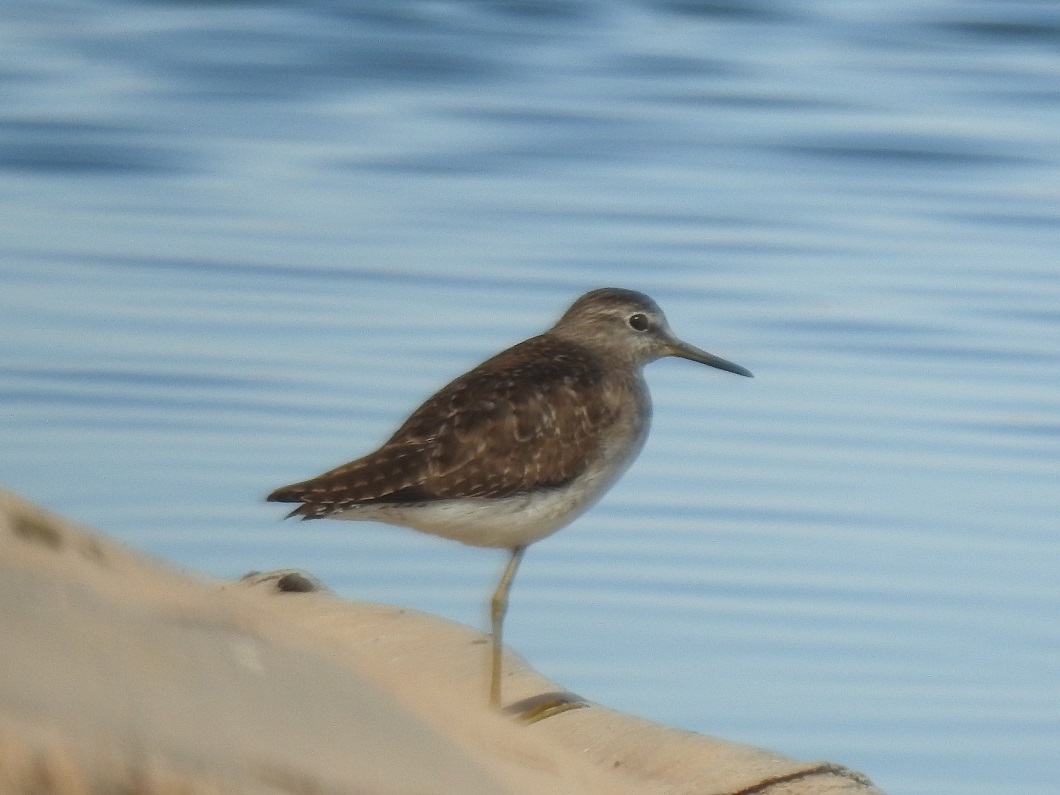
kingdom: Animalia
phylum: Chordata
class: Aves
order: Charadriiformes
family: Scolopacidae
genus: Tringa
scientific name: Tringa glareola
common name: Wood sandpiper
